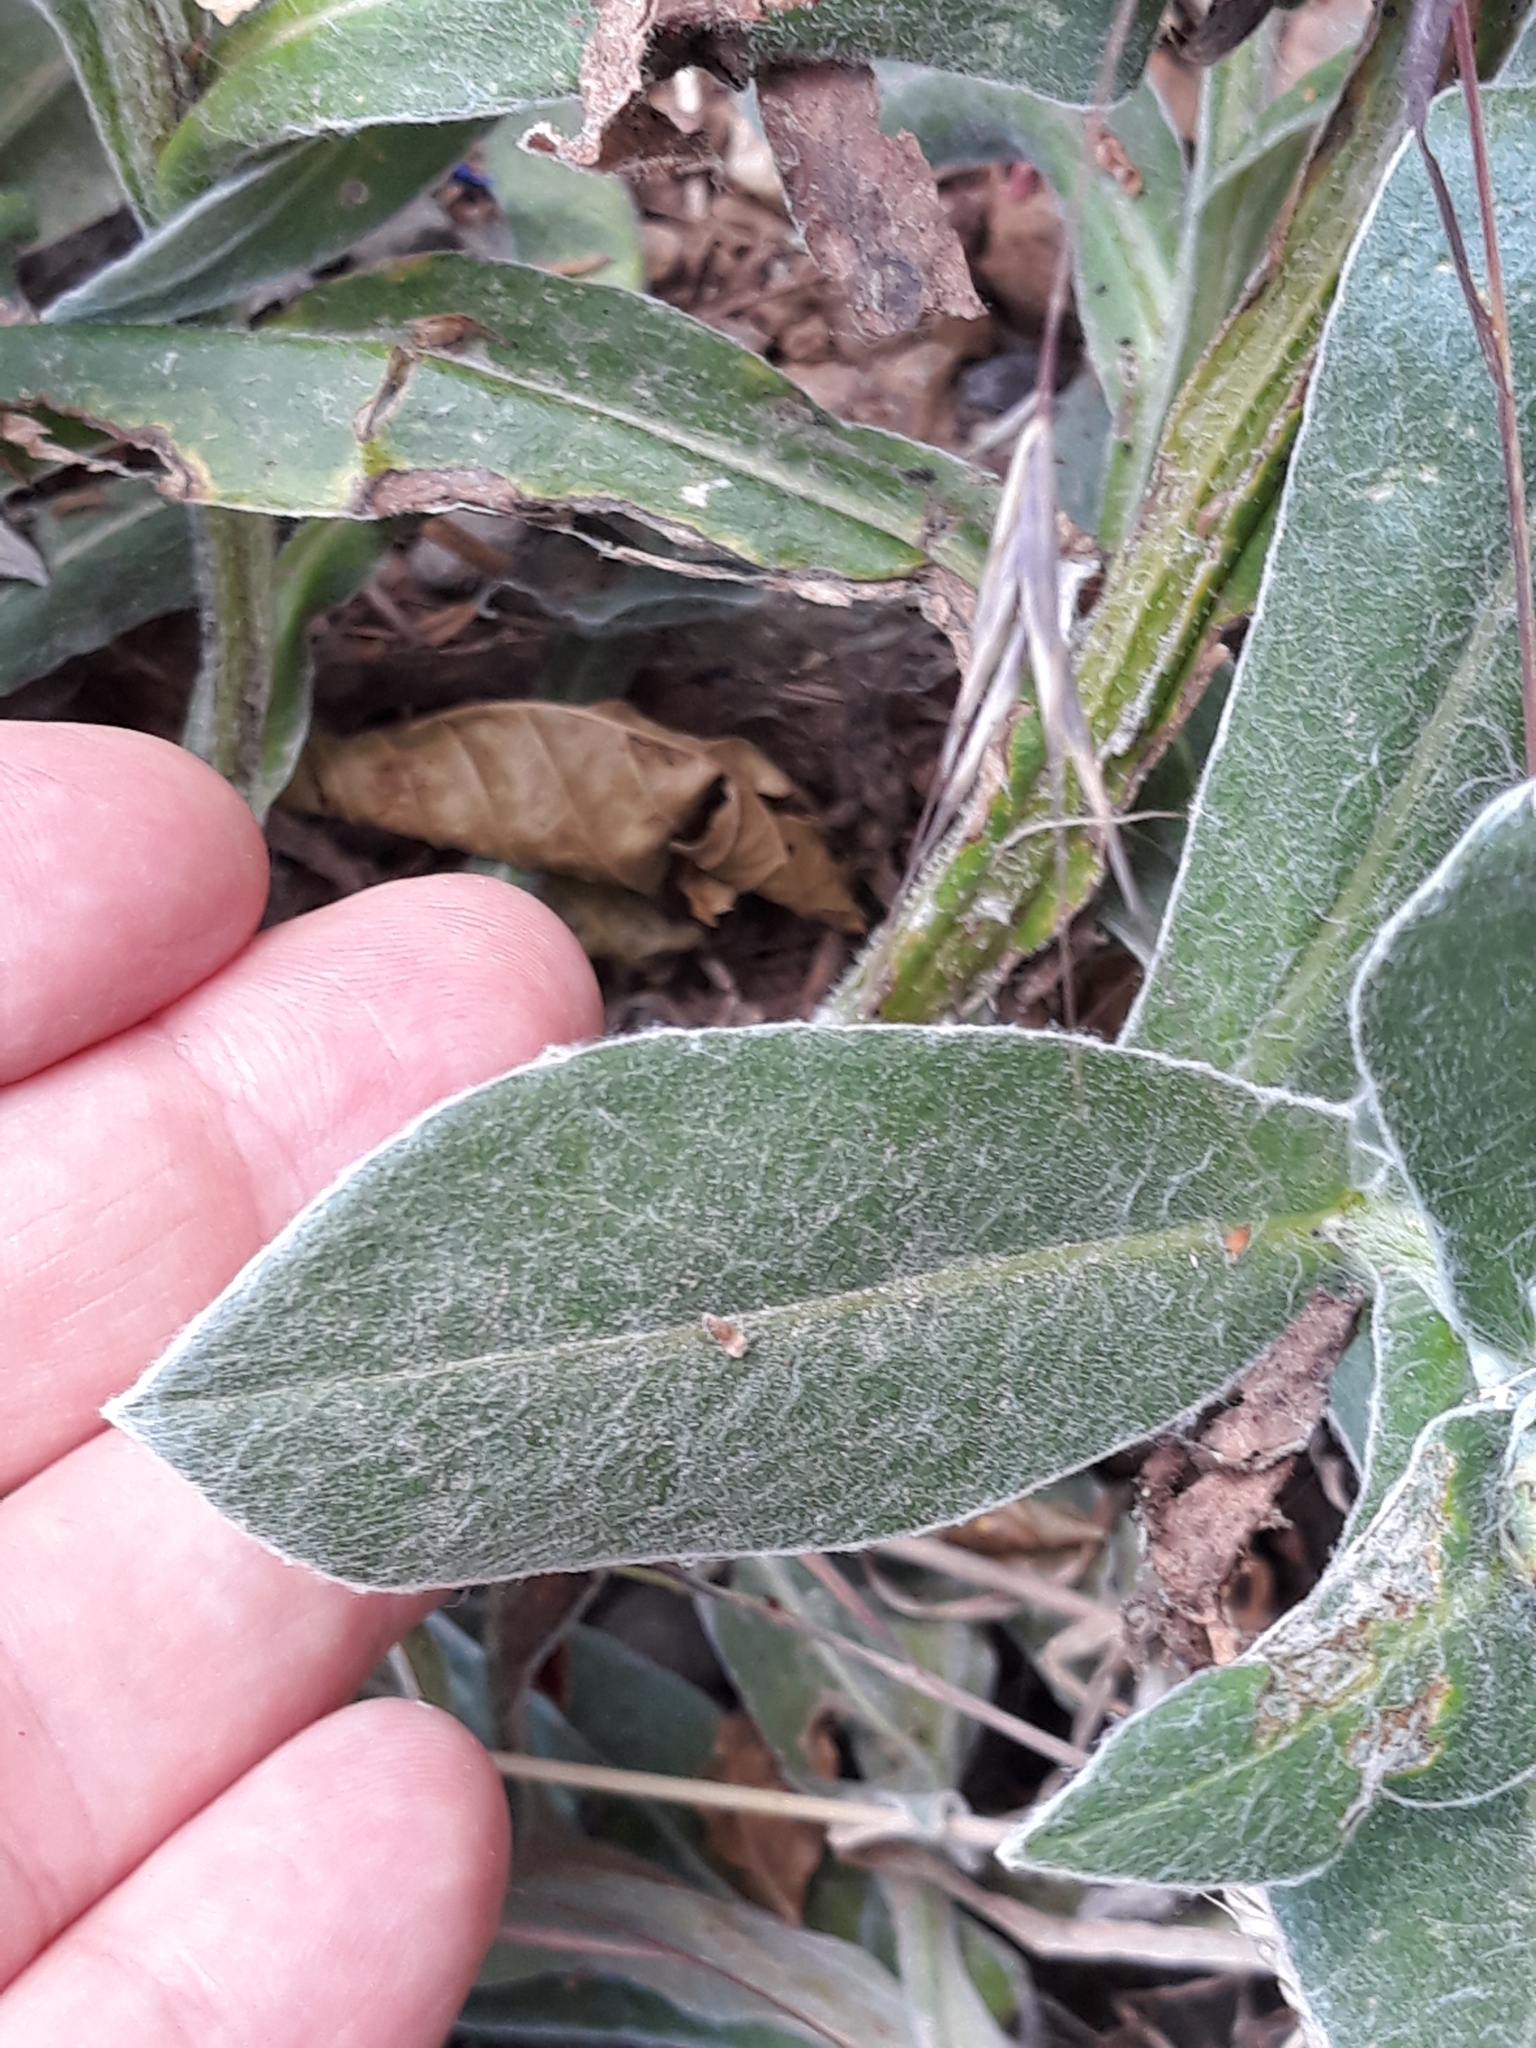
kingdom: Plantae
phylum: Tracheophyta
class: Magnoliopsida
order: Asterales
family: Asteraceae
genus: Centaurea
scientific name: Centaurea montana
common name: Perennial cornflower
